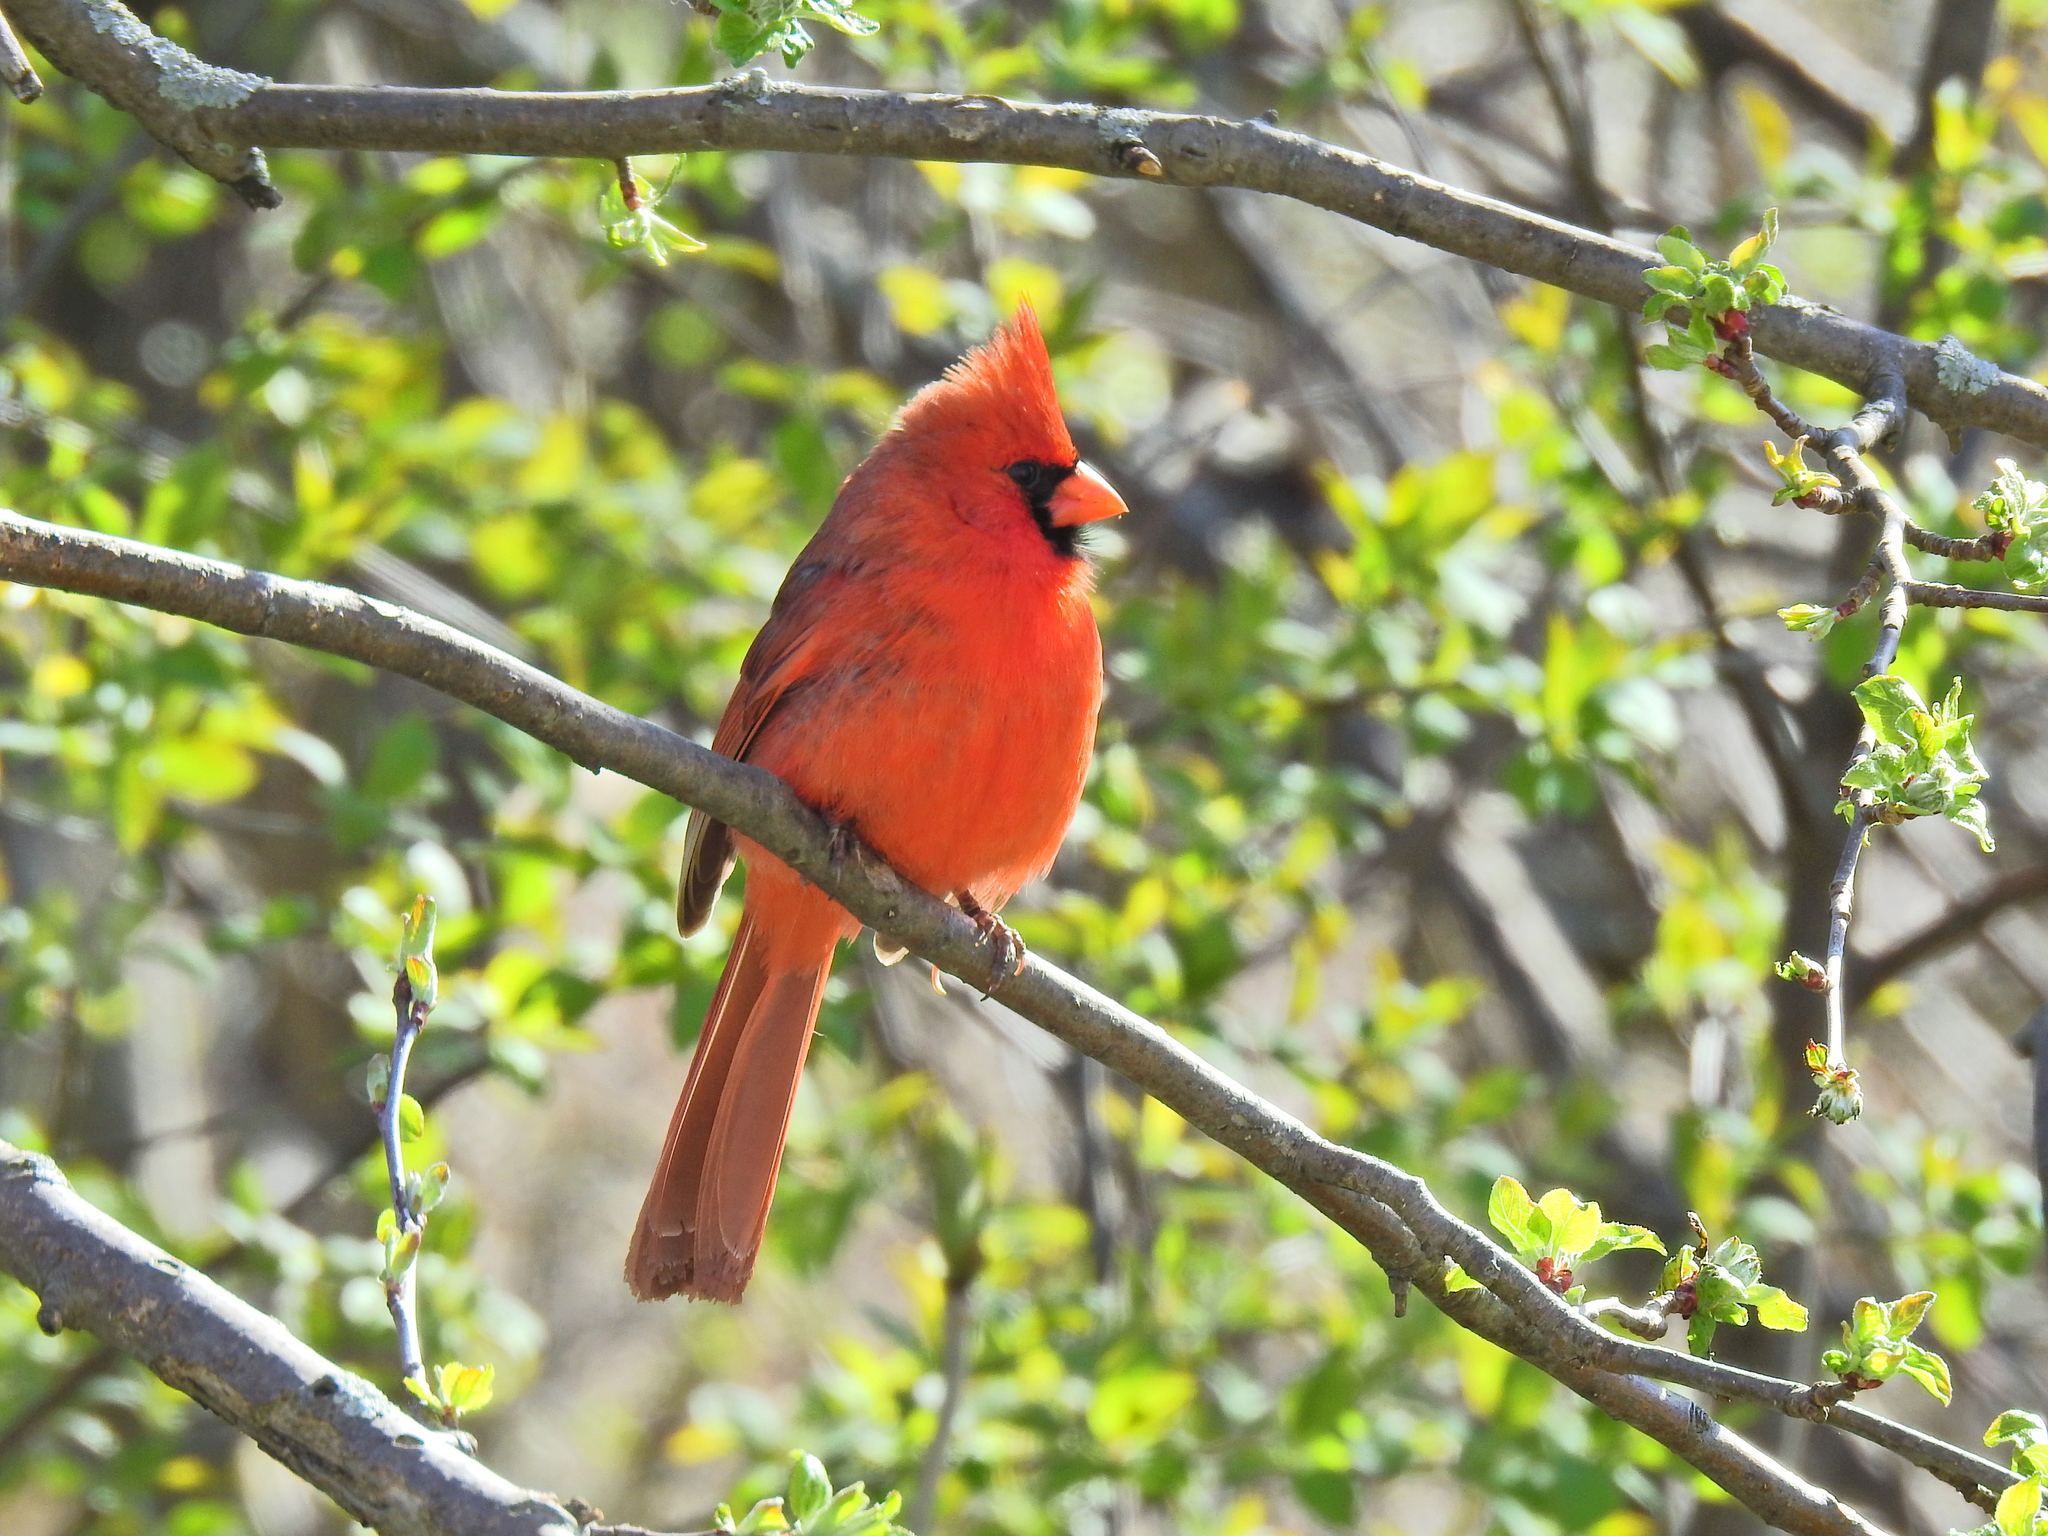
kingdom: Animalia
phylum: Chordata
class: Aves
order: Passeriformes
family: Cardinalidae
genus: Cardinalis
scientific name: Cardinalis cardinalis
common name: Northern cardinal
